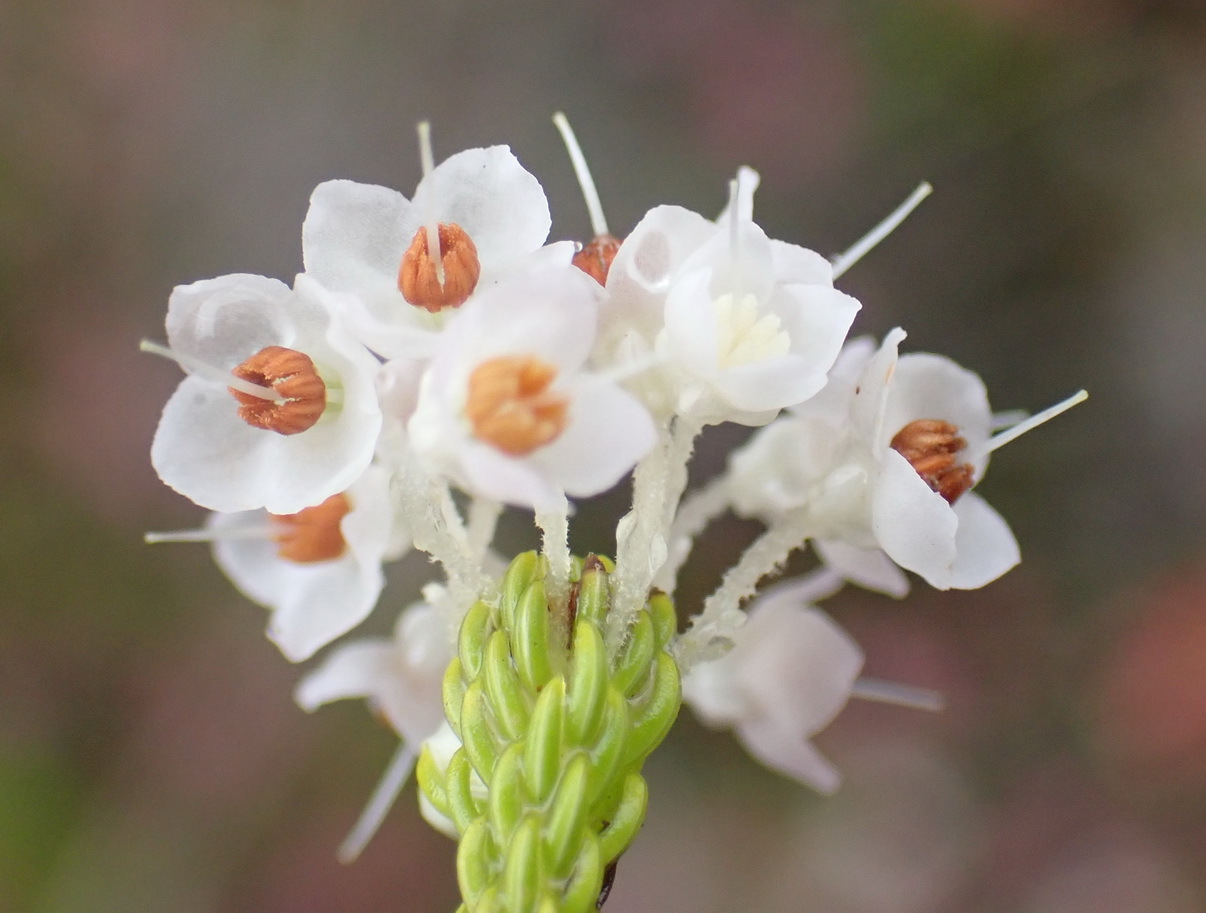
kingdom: Plantae
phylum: Tracheophyta
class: Magnoliopsida
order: Ericales
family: Ericaceae
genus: Erica
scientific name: Erica seriphiifolia
